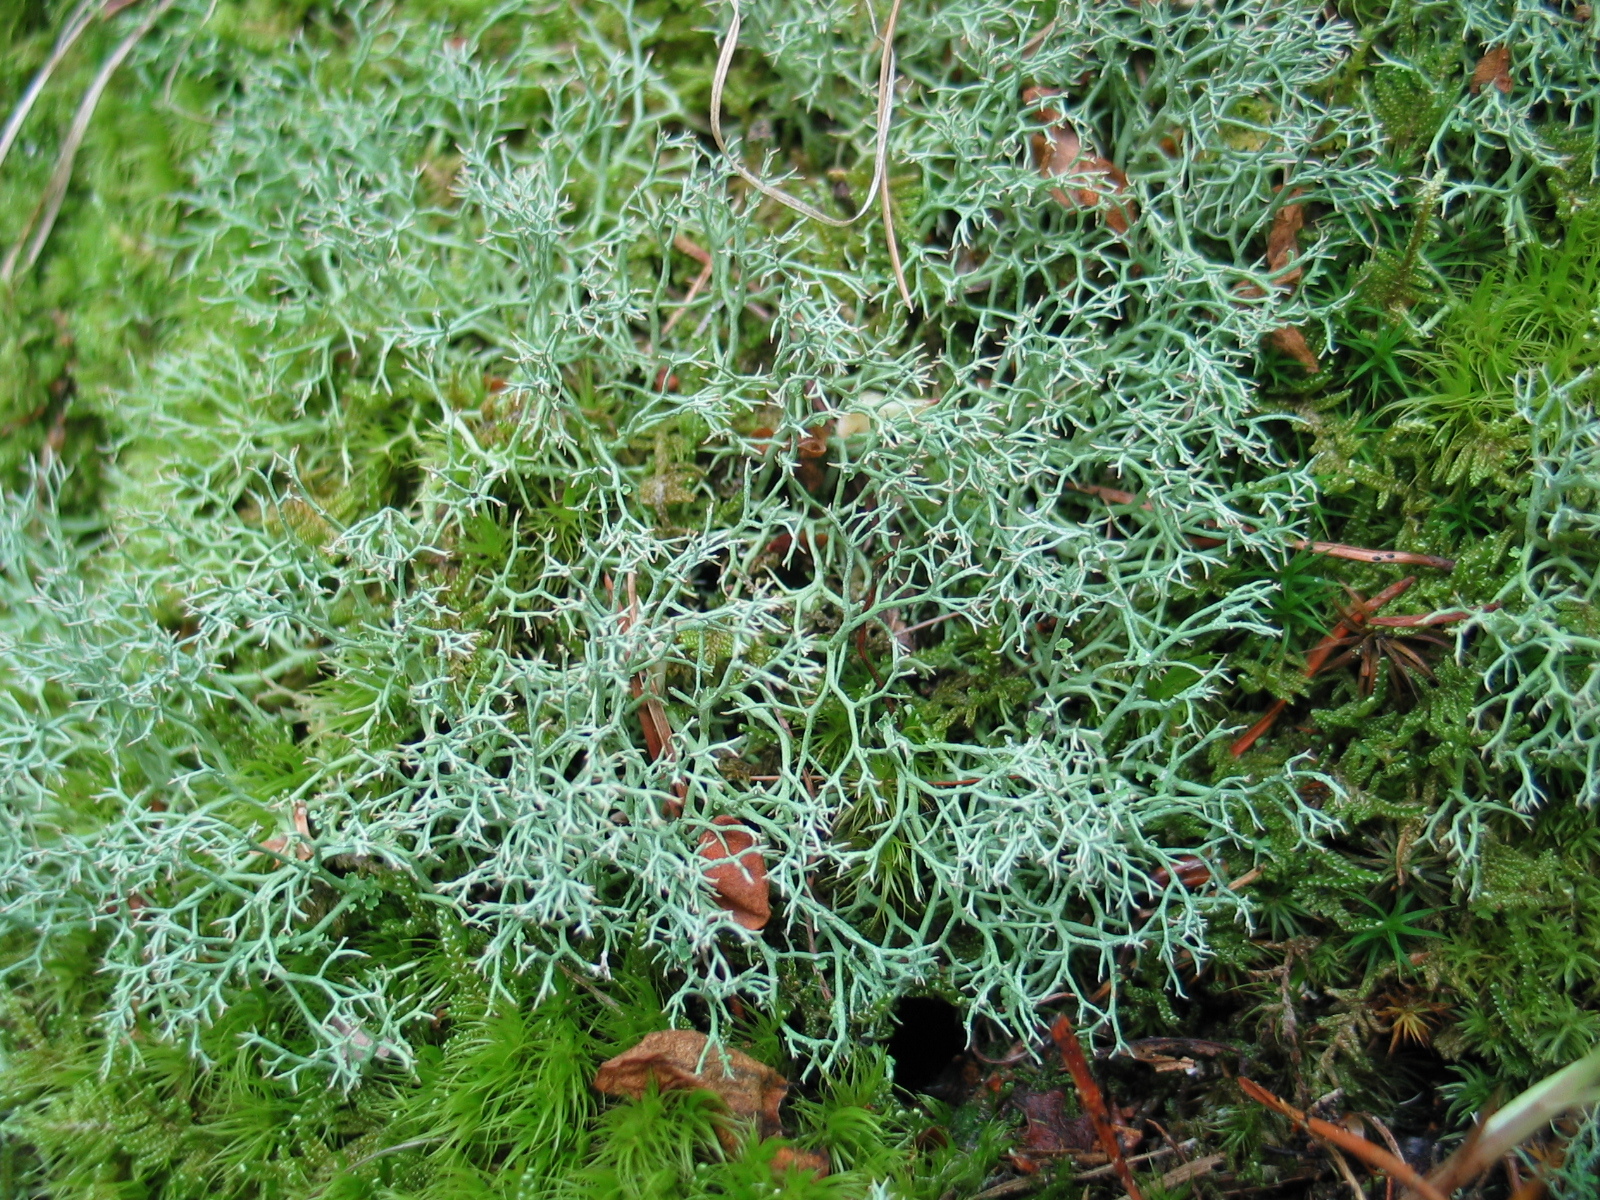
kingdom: Fungi
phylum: Ascomycota
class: Lecanoromycetes
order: Lecanorales
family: Cladoniaceae
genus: Cladonia
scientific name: Cladonia furcata
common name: Many-forked cladonia
